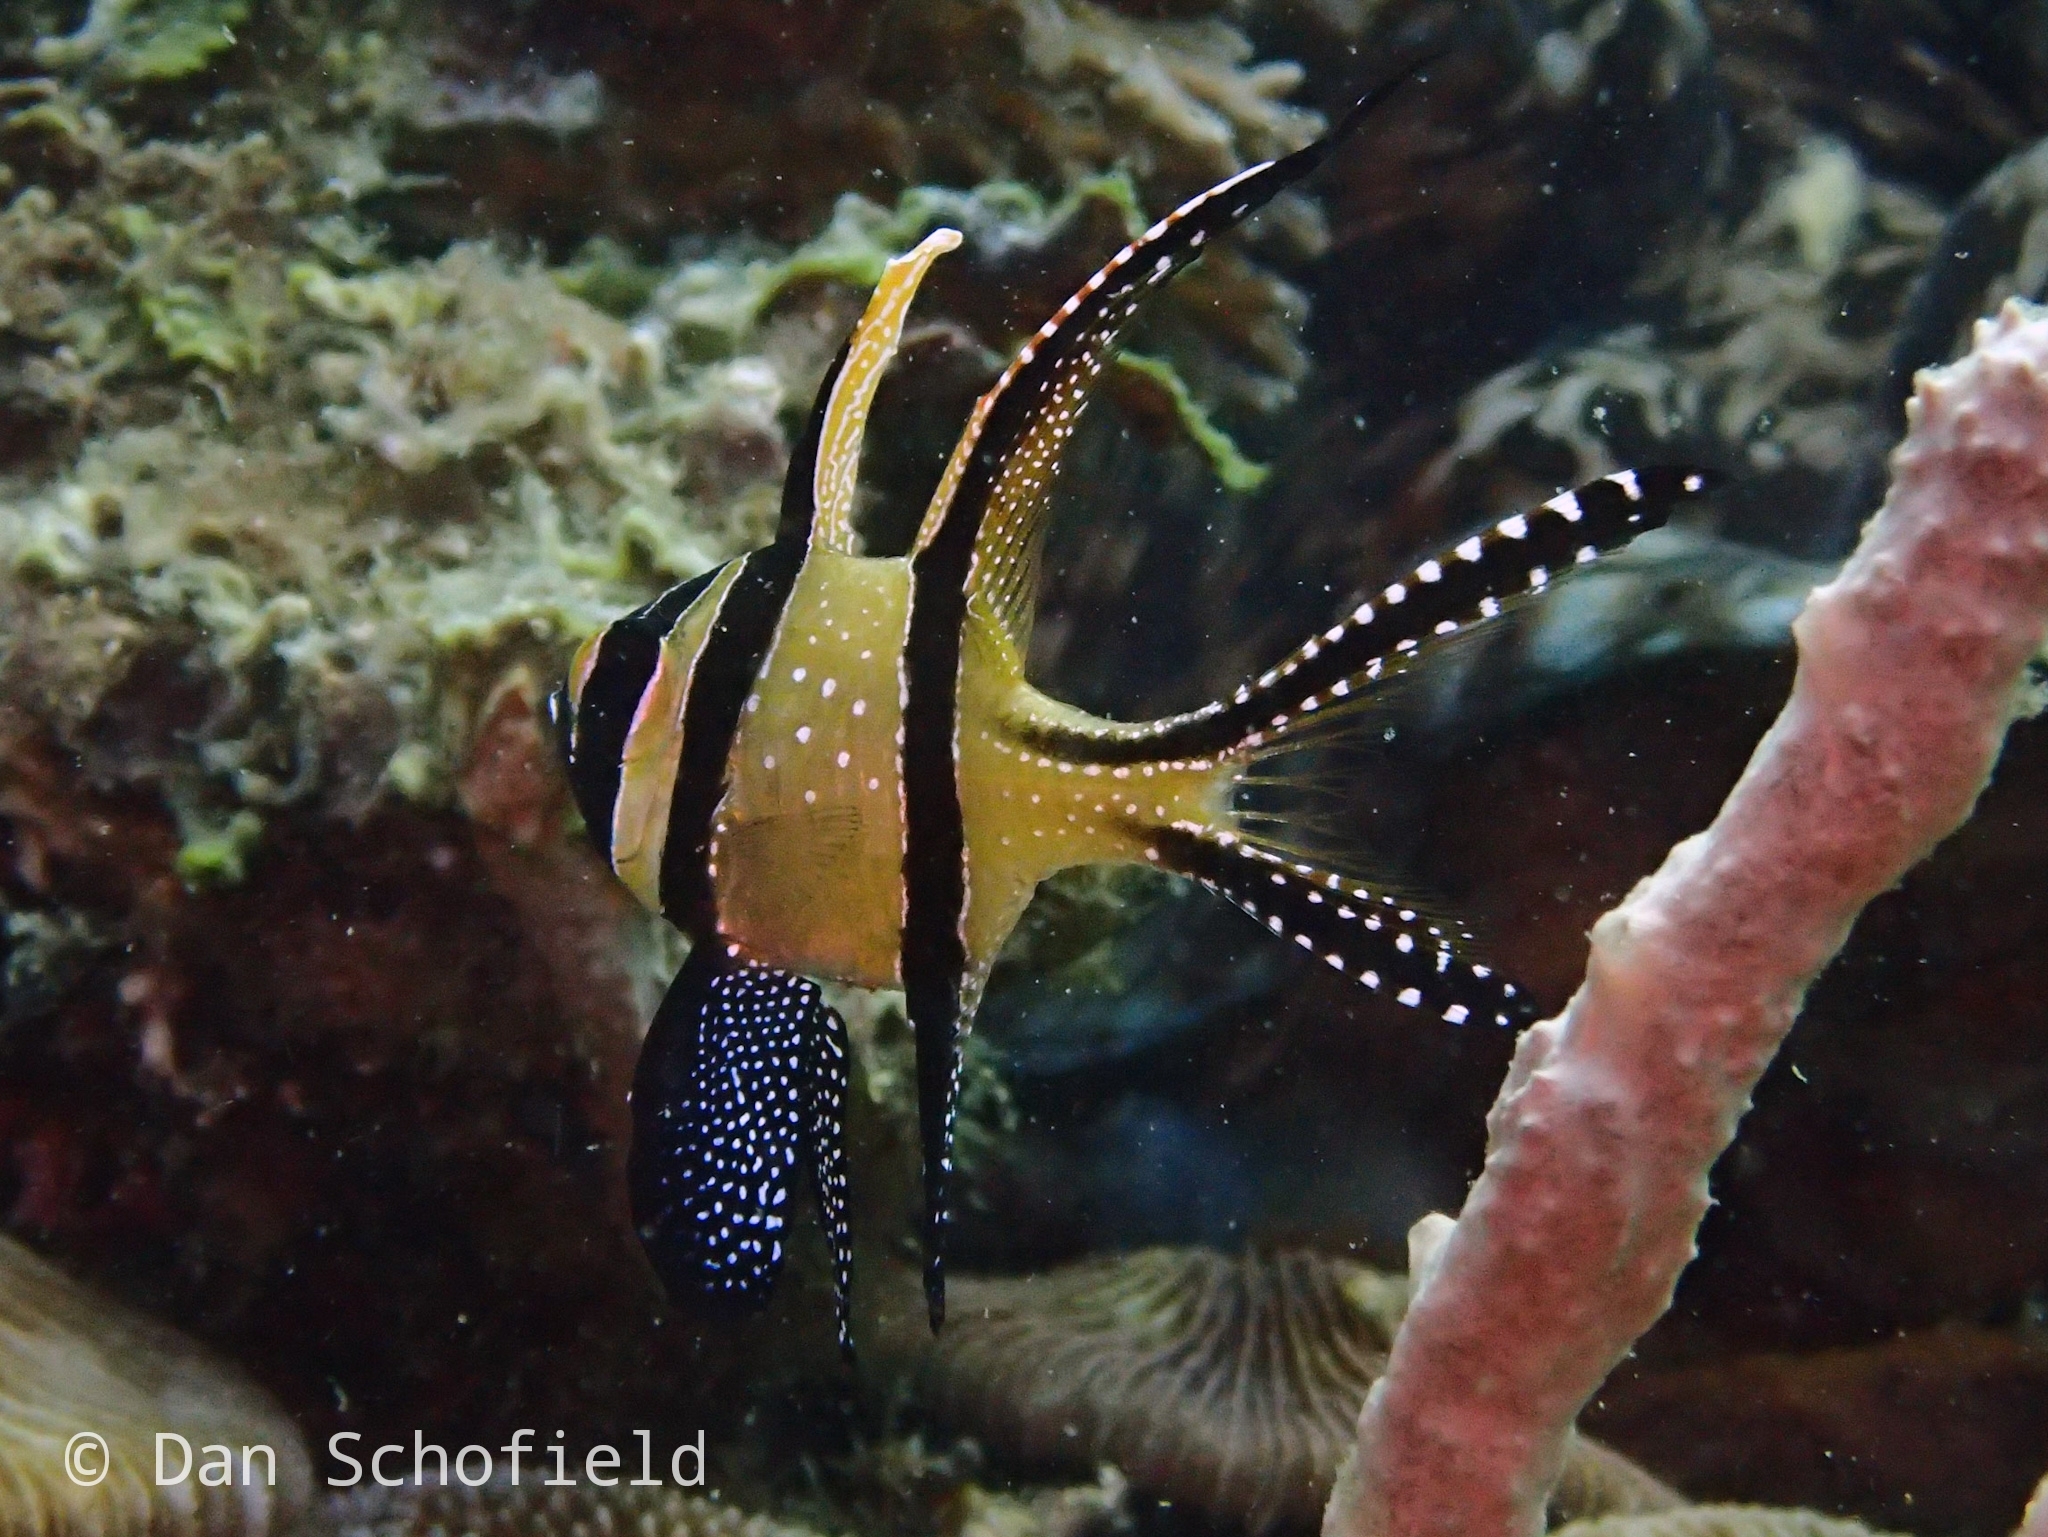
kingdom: Animalia
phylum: Chordata
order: Perciformes
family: Apogonidae
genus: Pterapogon
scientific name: Pterapogon kauderni
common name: Banggai cardinalfish
